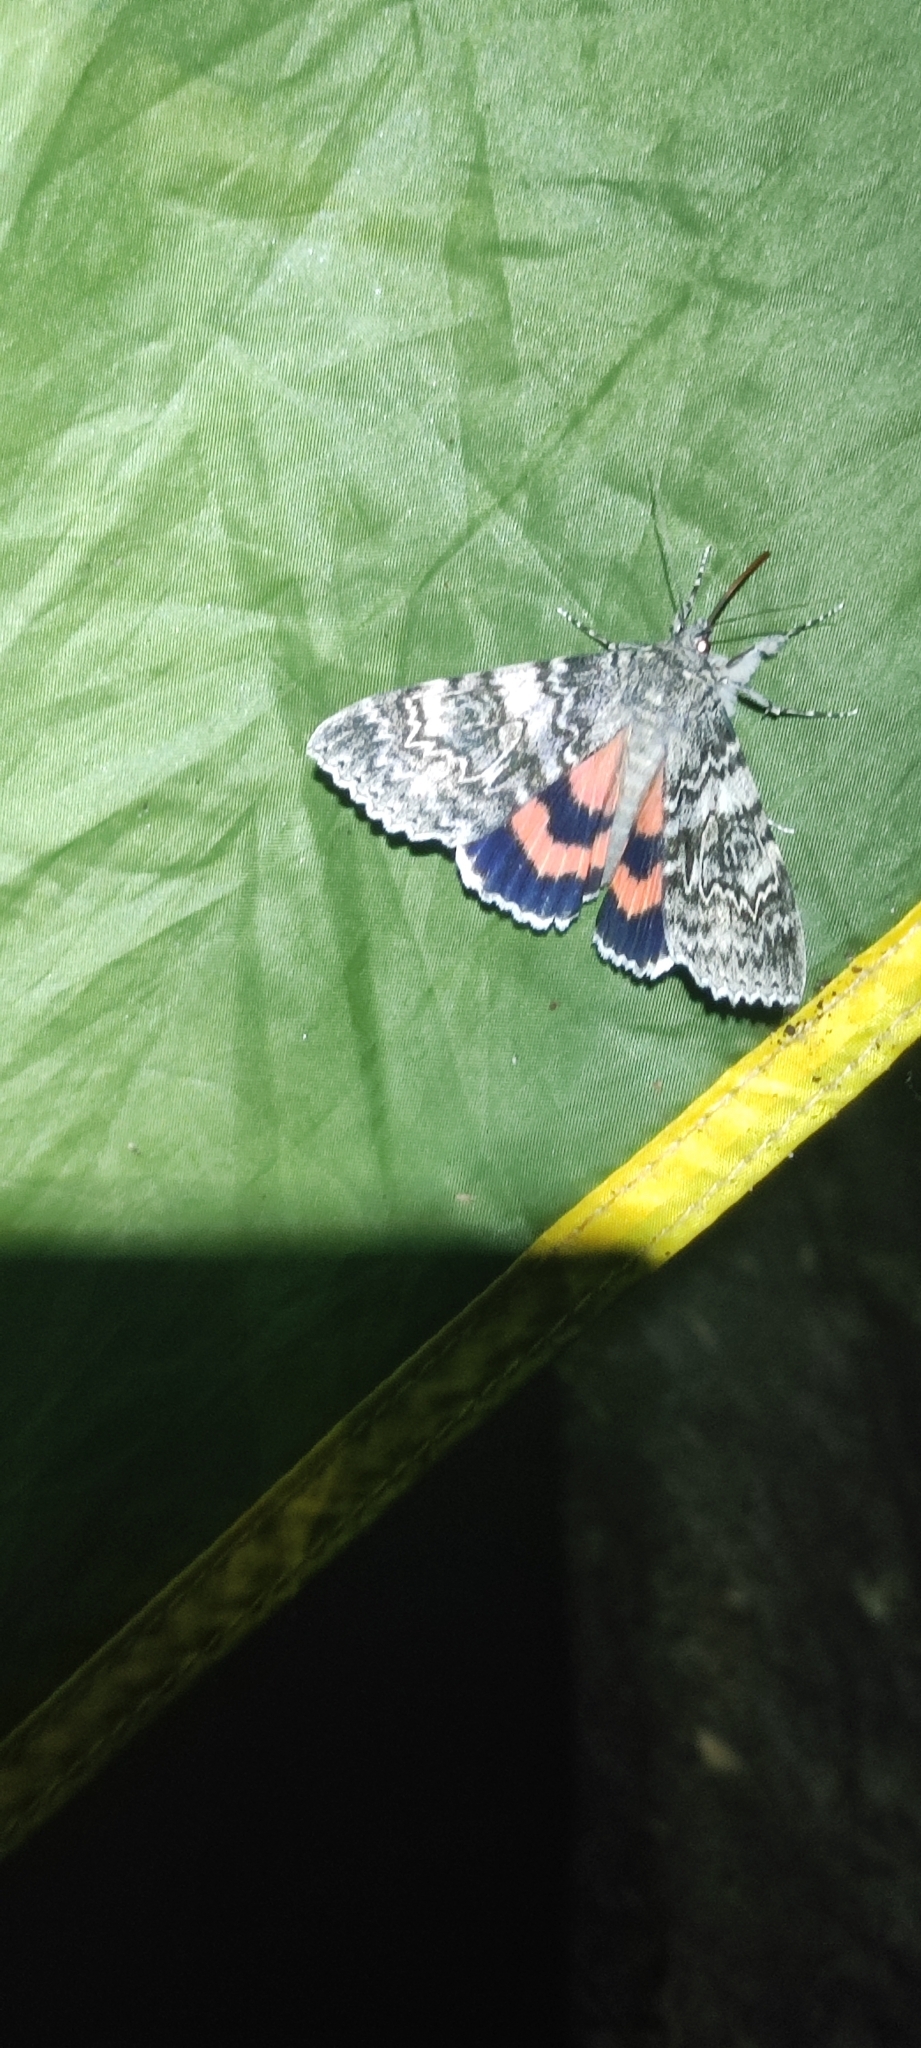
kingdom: Animalia
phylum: Arthropoda
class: Insecta
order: Lepidoptera
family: Erebidae
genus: Catocala
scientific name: Catocala adultera
